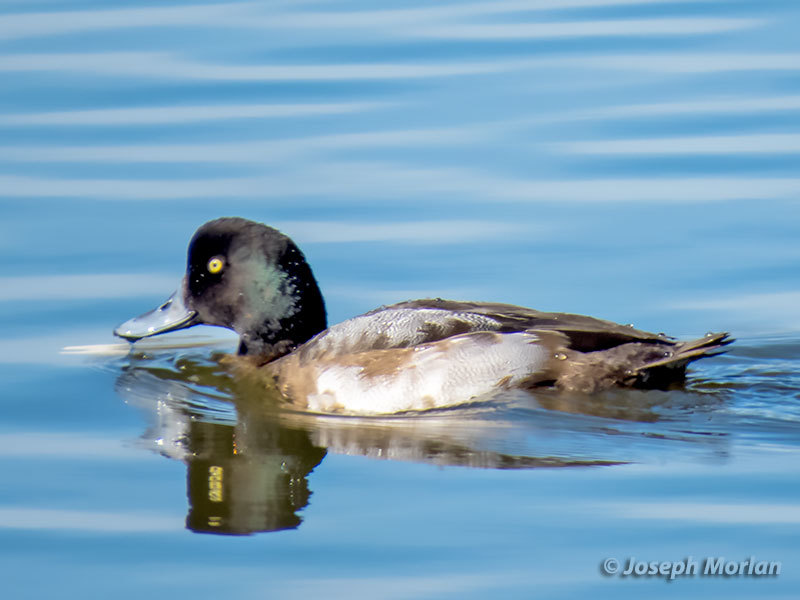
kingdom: Animalia
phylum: Chordata
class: Aves
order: Anseriformes
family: Anatidae
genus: Aythya
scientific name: Aythya affinis
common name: Lesser scaup
